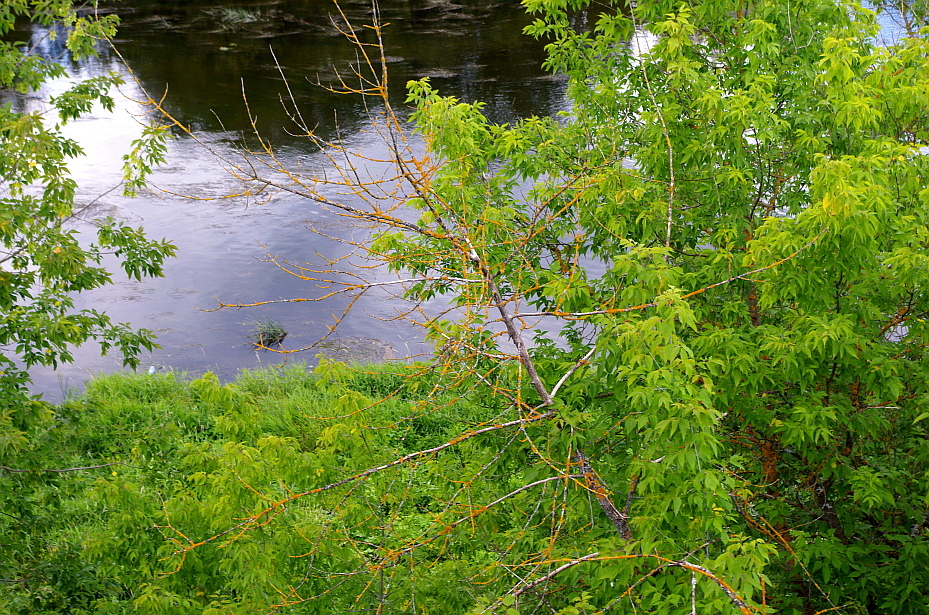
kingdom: Fungi
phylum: Ascomycota
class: Lecanoromycetes
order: Teloschistales
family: Teloschistaceae
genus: Xanthoria
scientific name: Xanthoria parietina
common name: Common orange lichen
